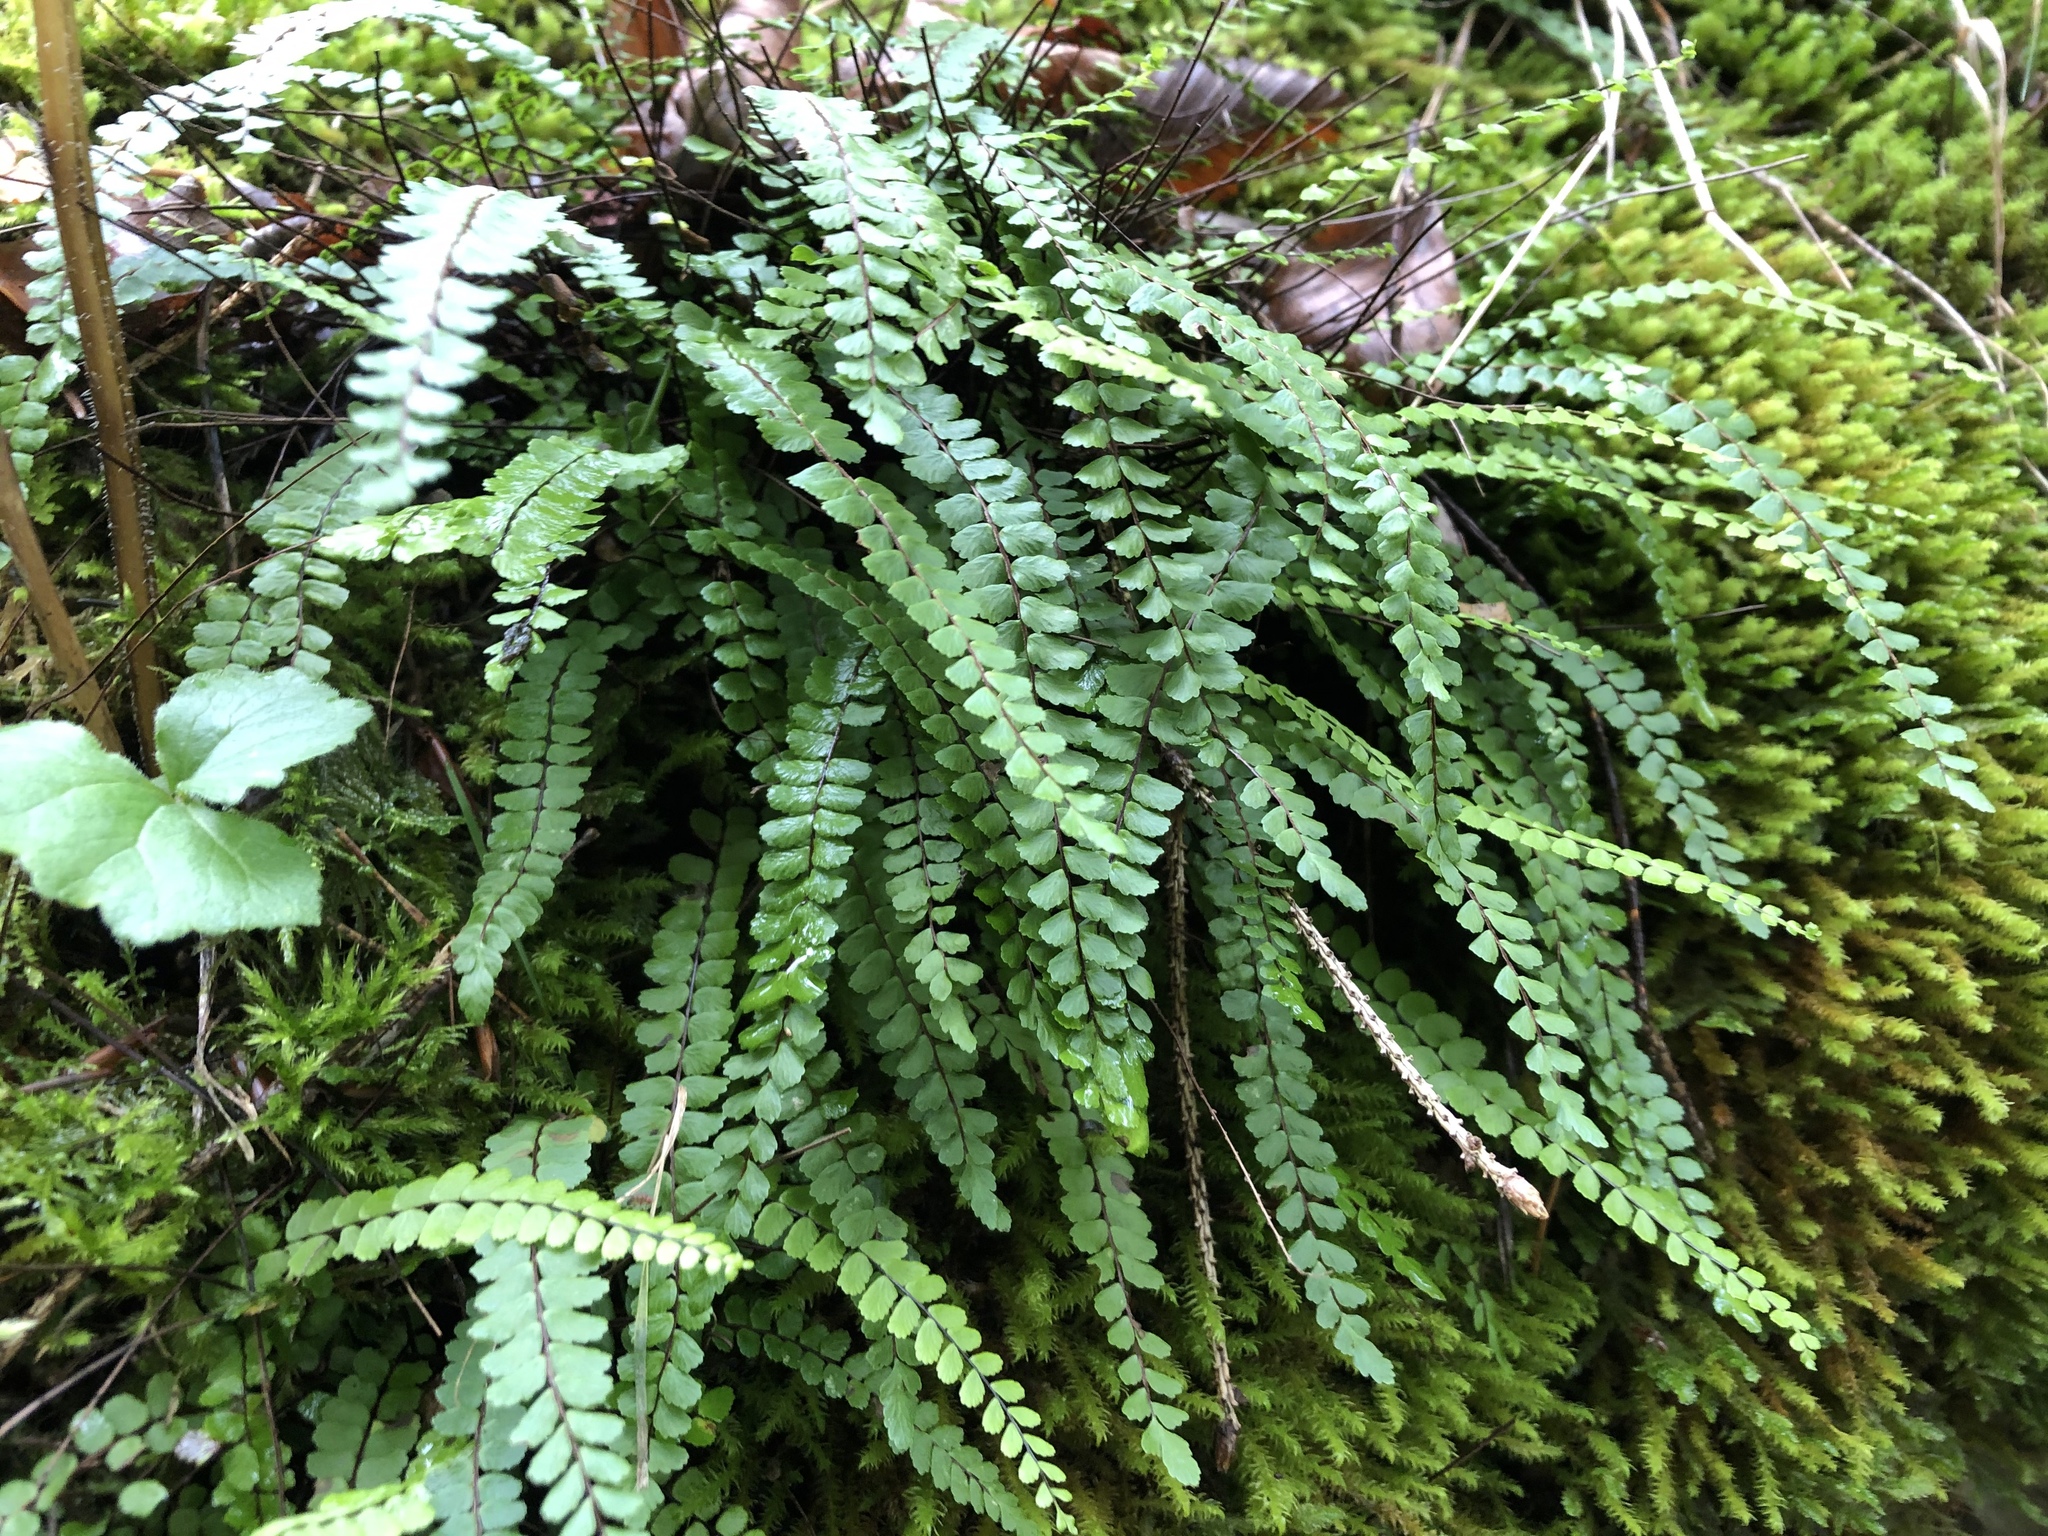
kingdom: Plantae
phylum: Tracheophyta
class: Polypodiopsida
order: Polypodiales
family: Aspleniaceae
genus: Asplenium
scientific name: Asplenium trichomanes
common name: Maidenhair spleenwort
